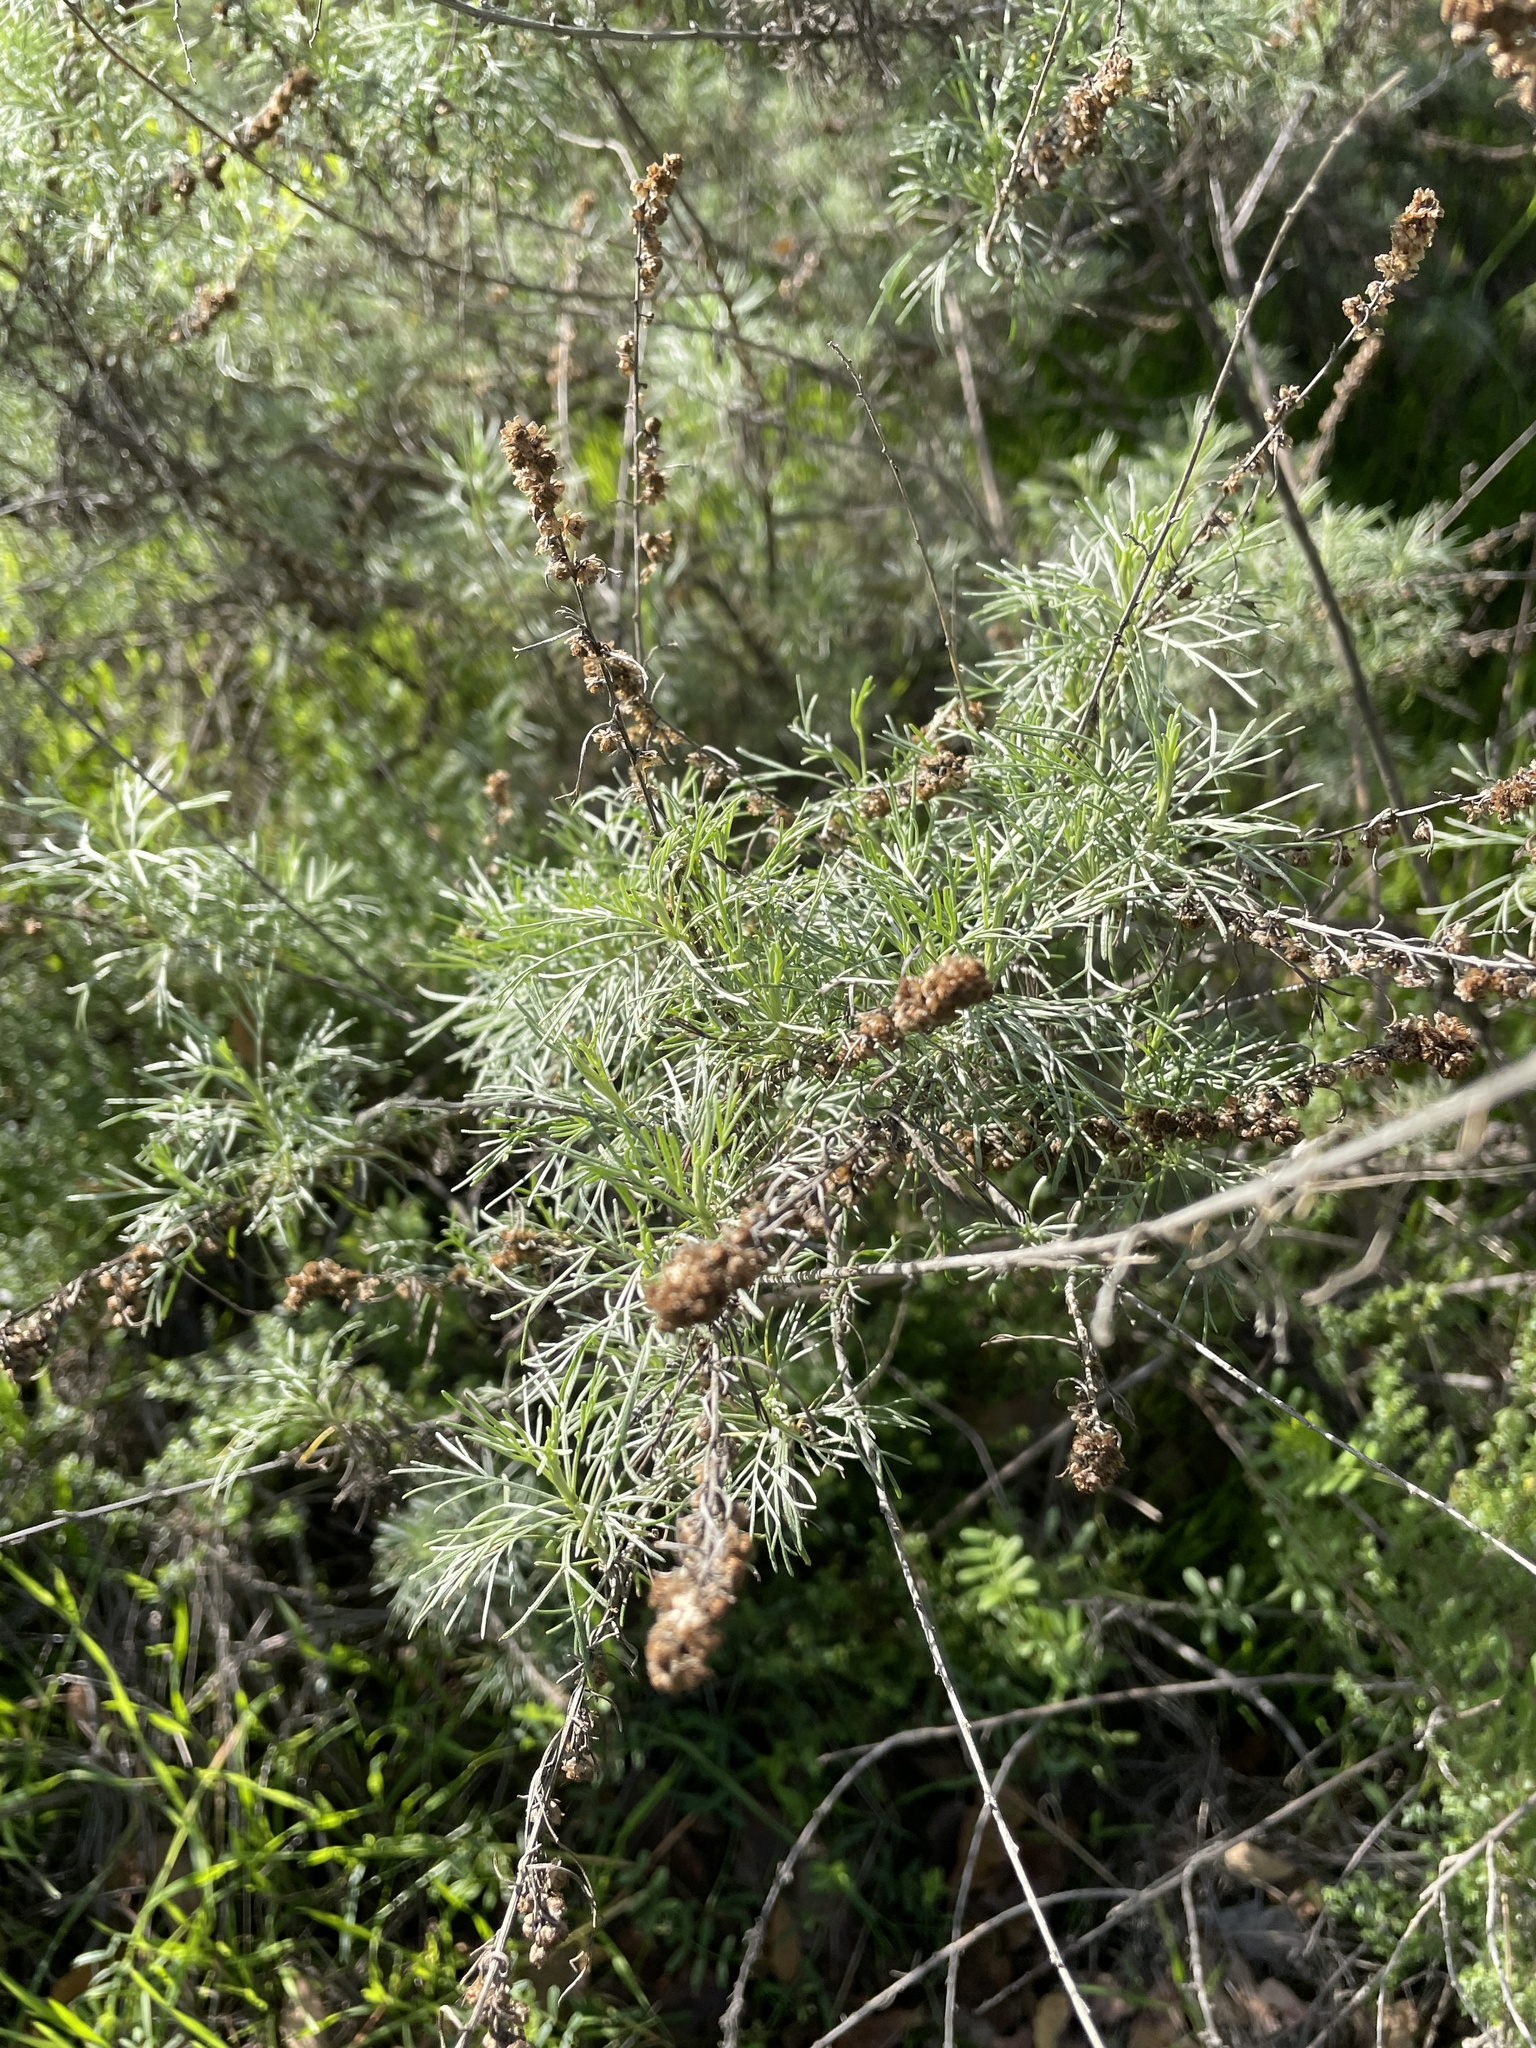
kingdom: Plantae
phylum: Tracheophyta
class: Magnoliopsida
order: Asterales
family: Asteraceae
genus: Artemisia
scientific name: Artemisia californica
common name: California sagebrush
